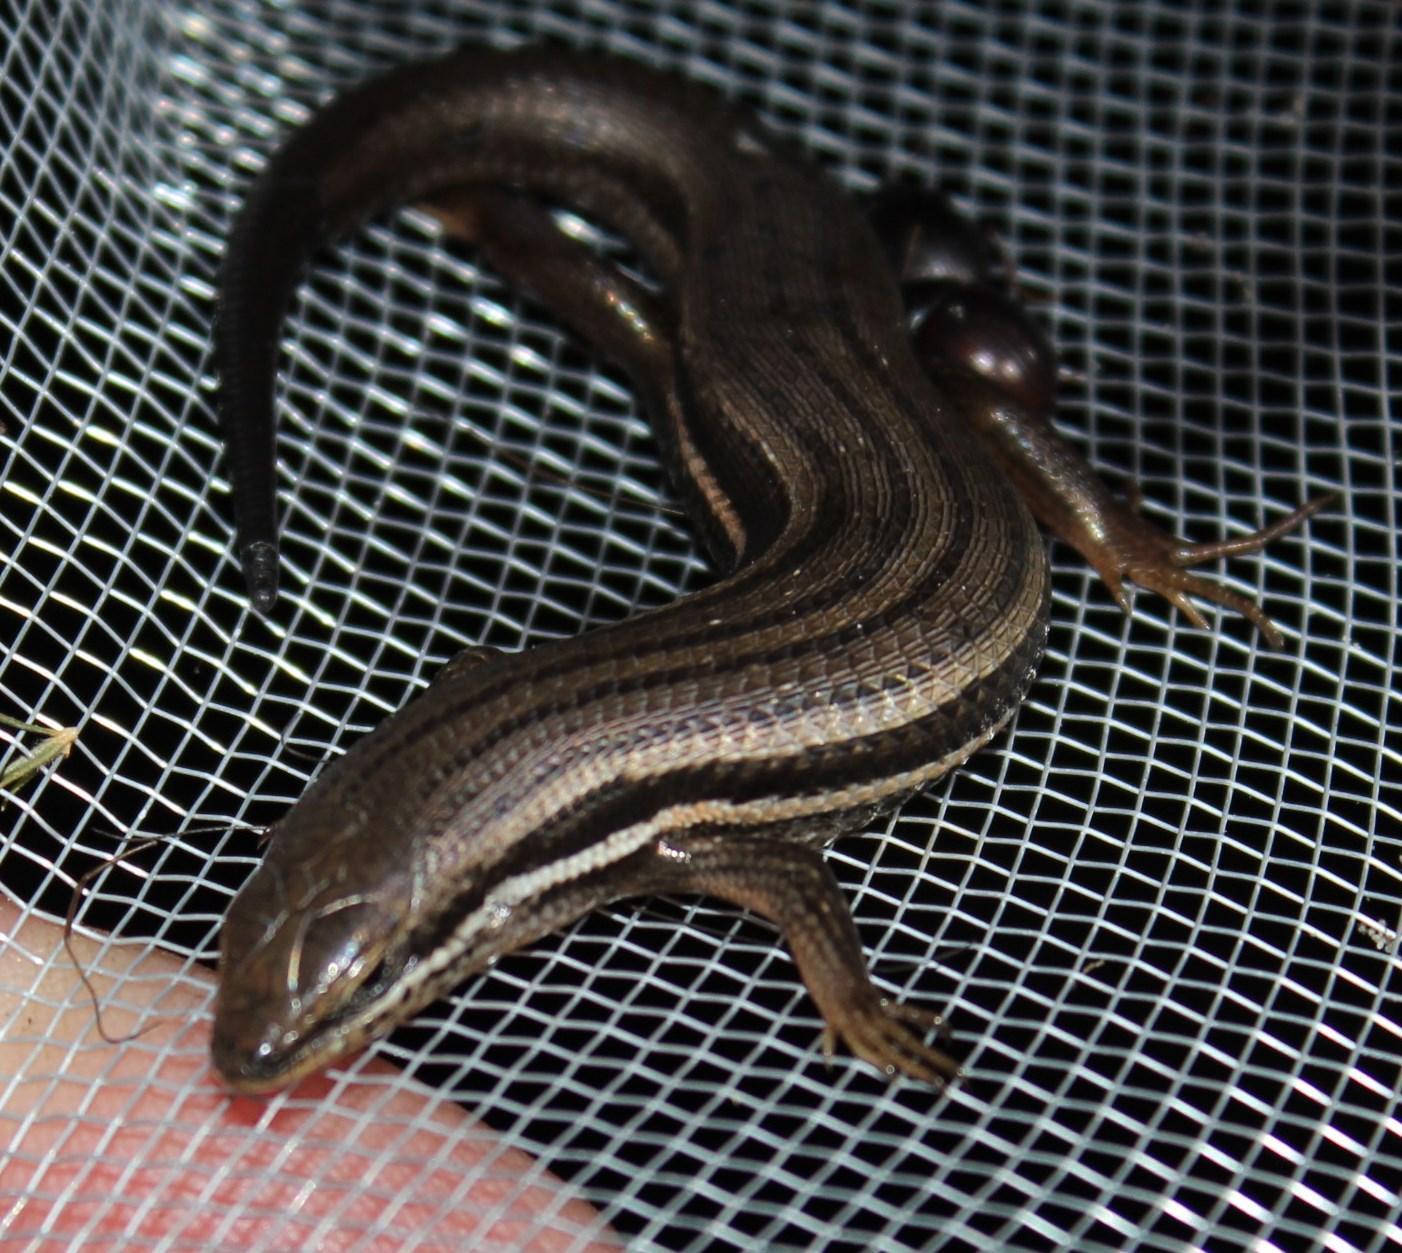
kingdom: Animalia
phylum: Chordata
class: Squamata
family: Scincidae
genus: Trachylepis
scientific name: Trachylepis homalocephala
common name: Red-sided skink
